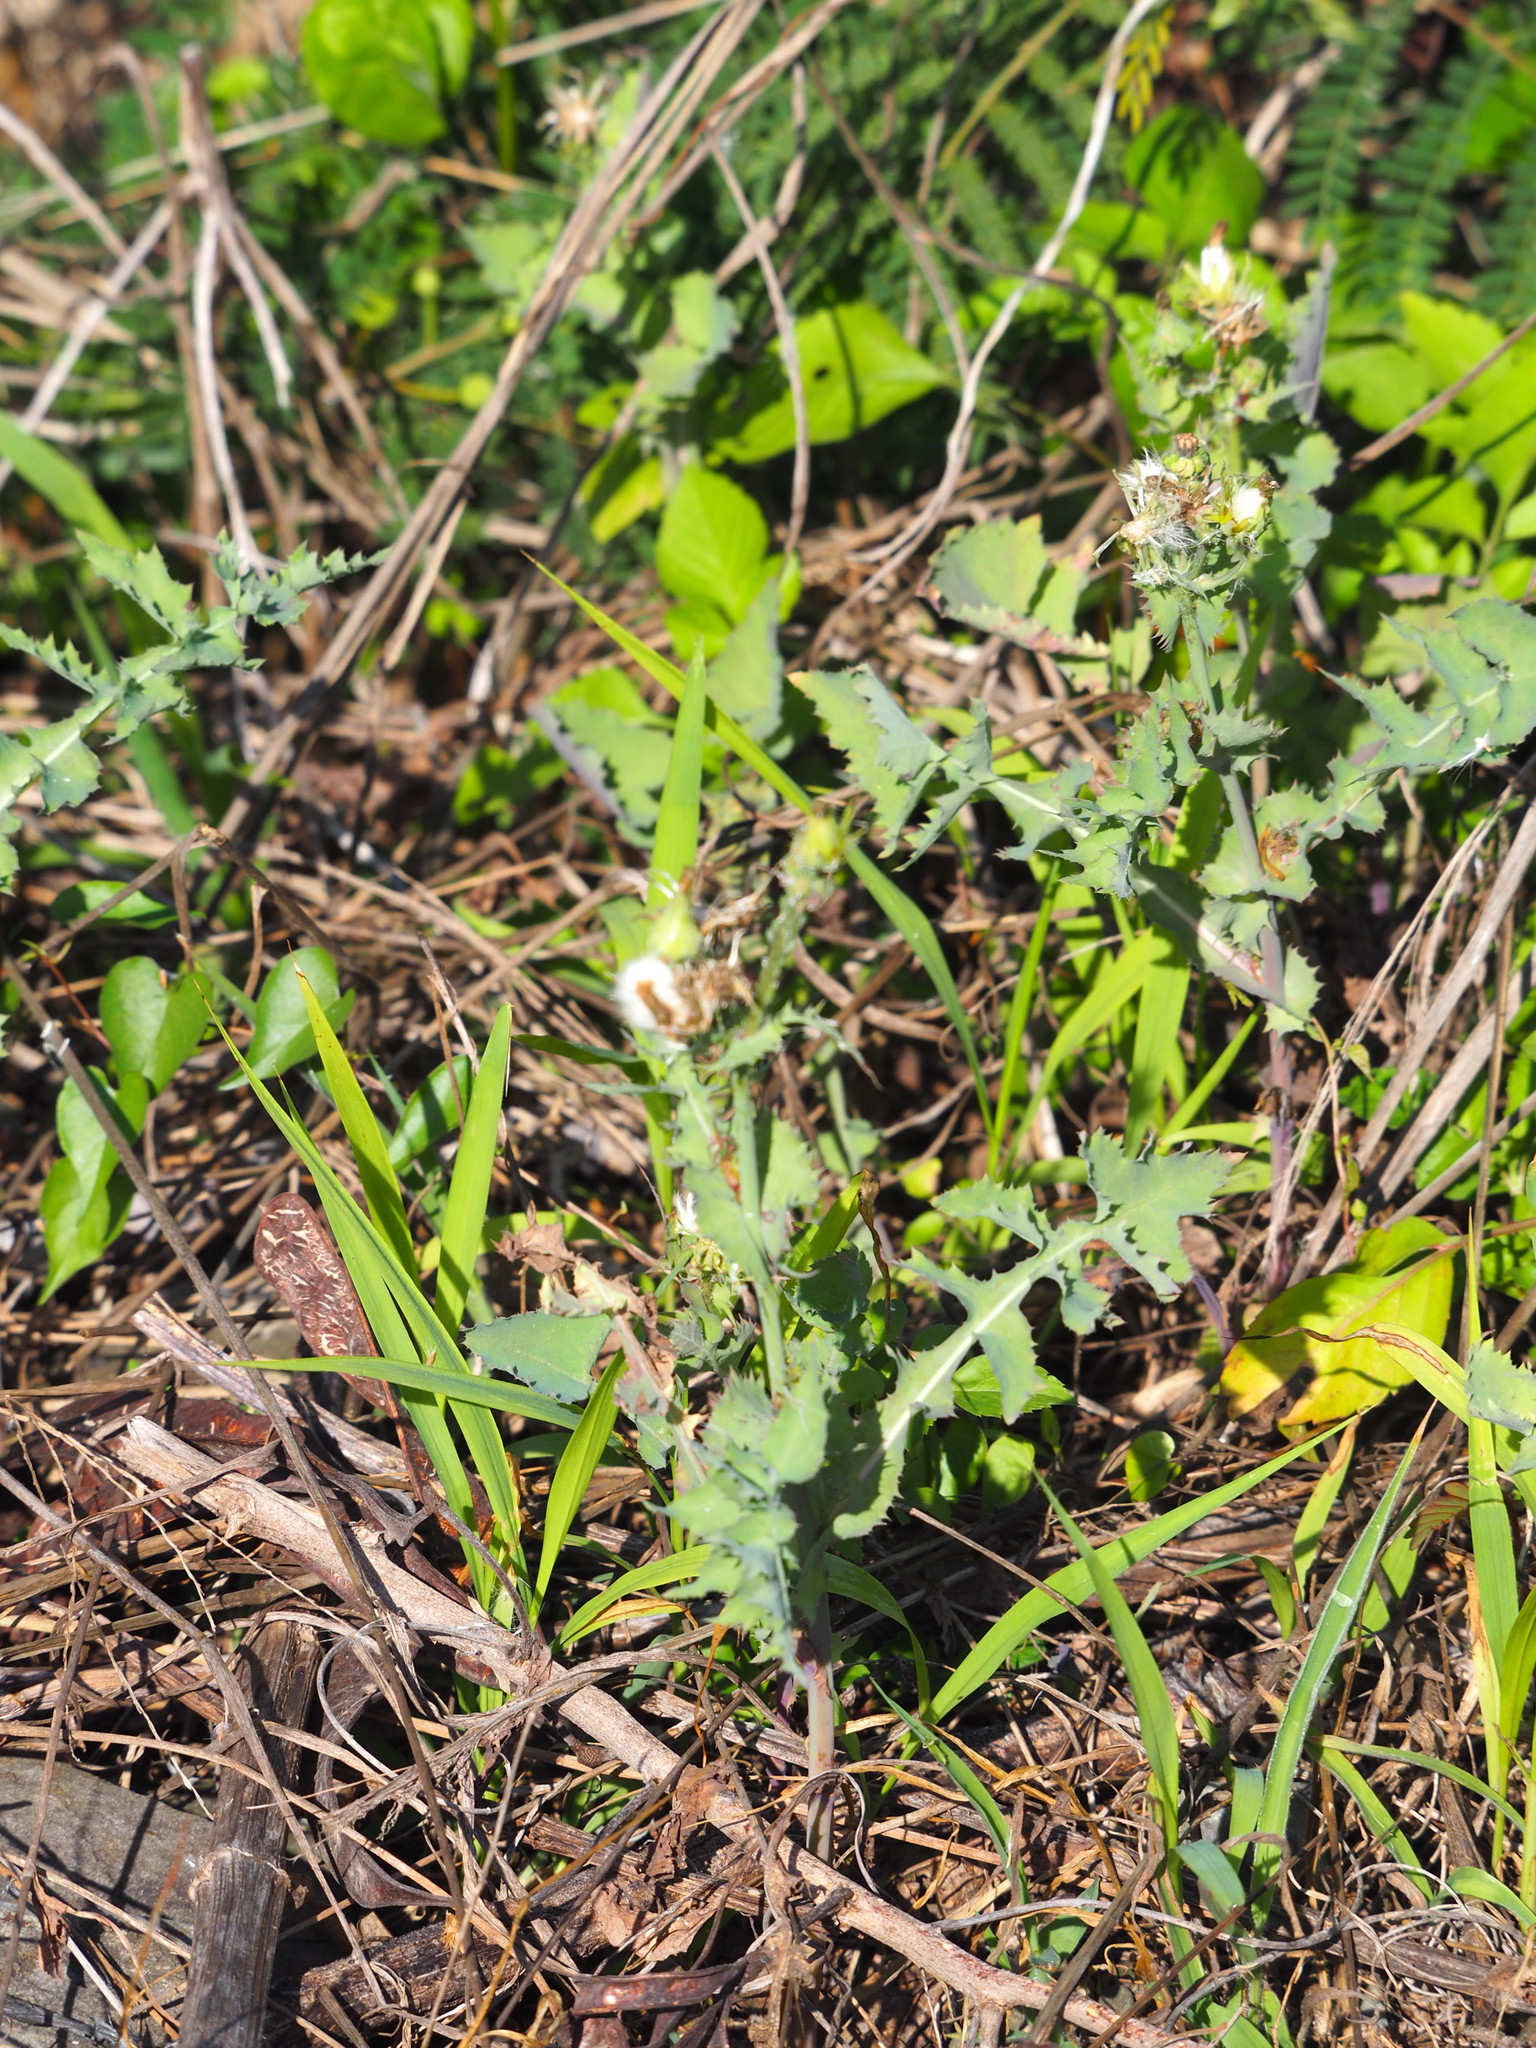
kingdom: Plantae
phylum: Tracheophyta
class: Magnoliopsida
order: Asterales
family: Asteraceae
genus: Sonchus
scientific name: Sonchus oleraceus
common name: Common sowthistle
